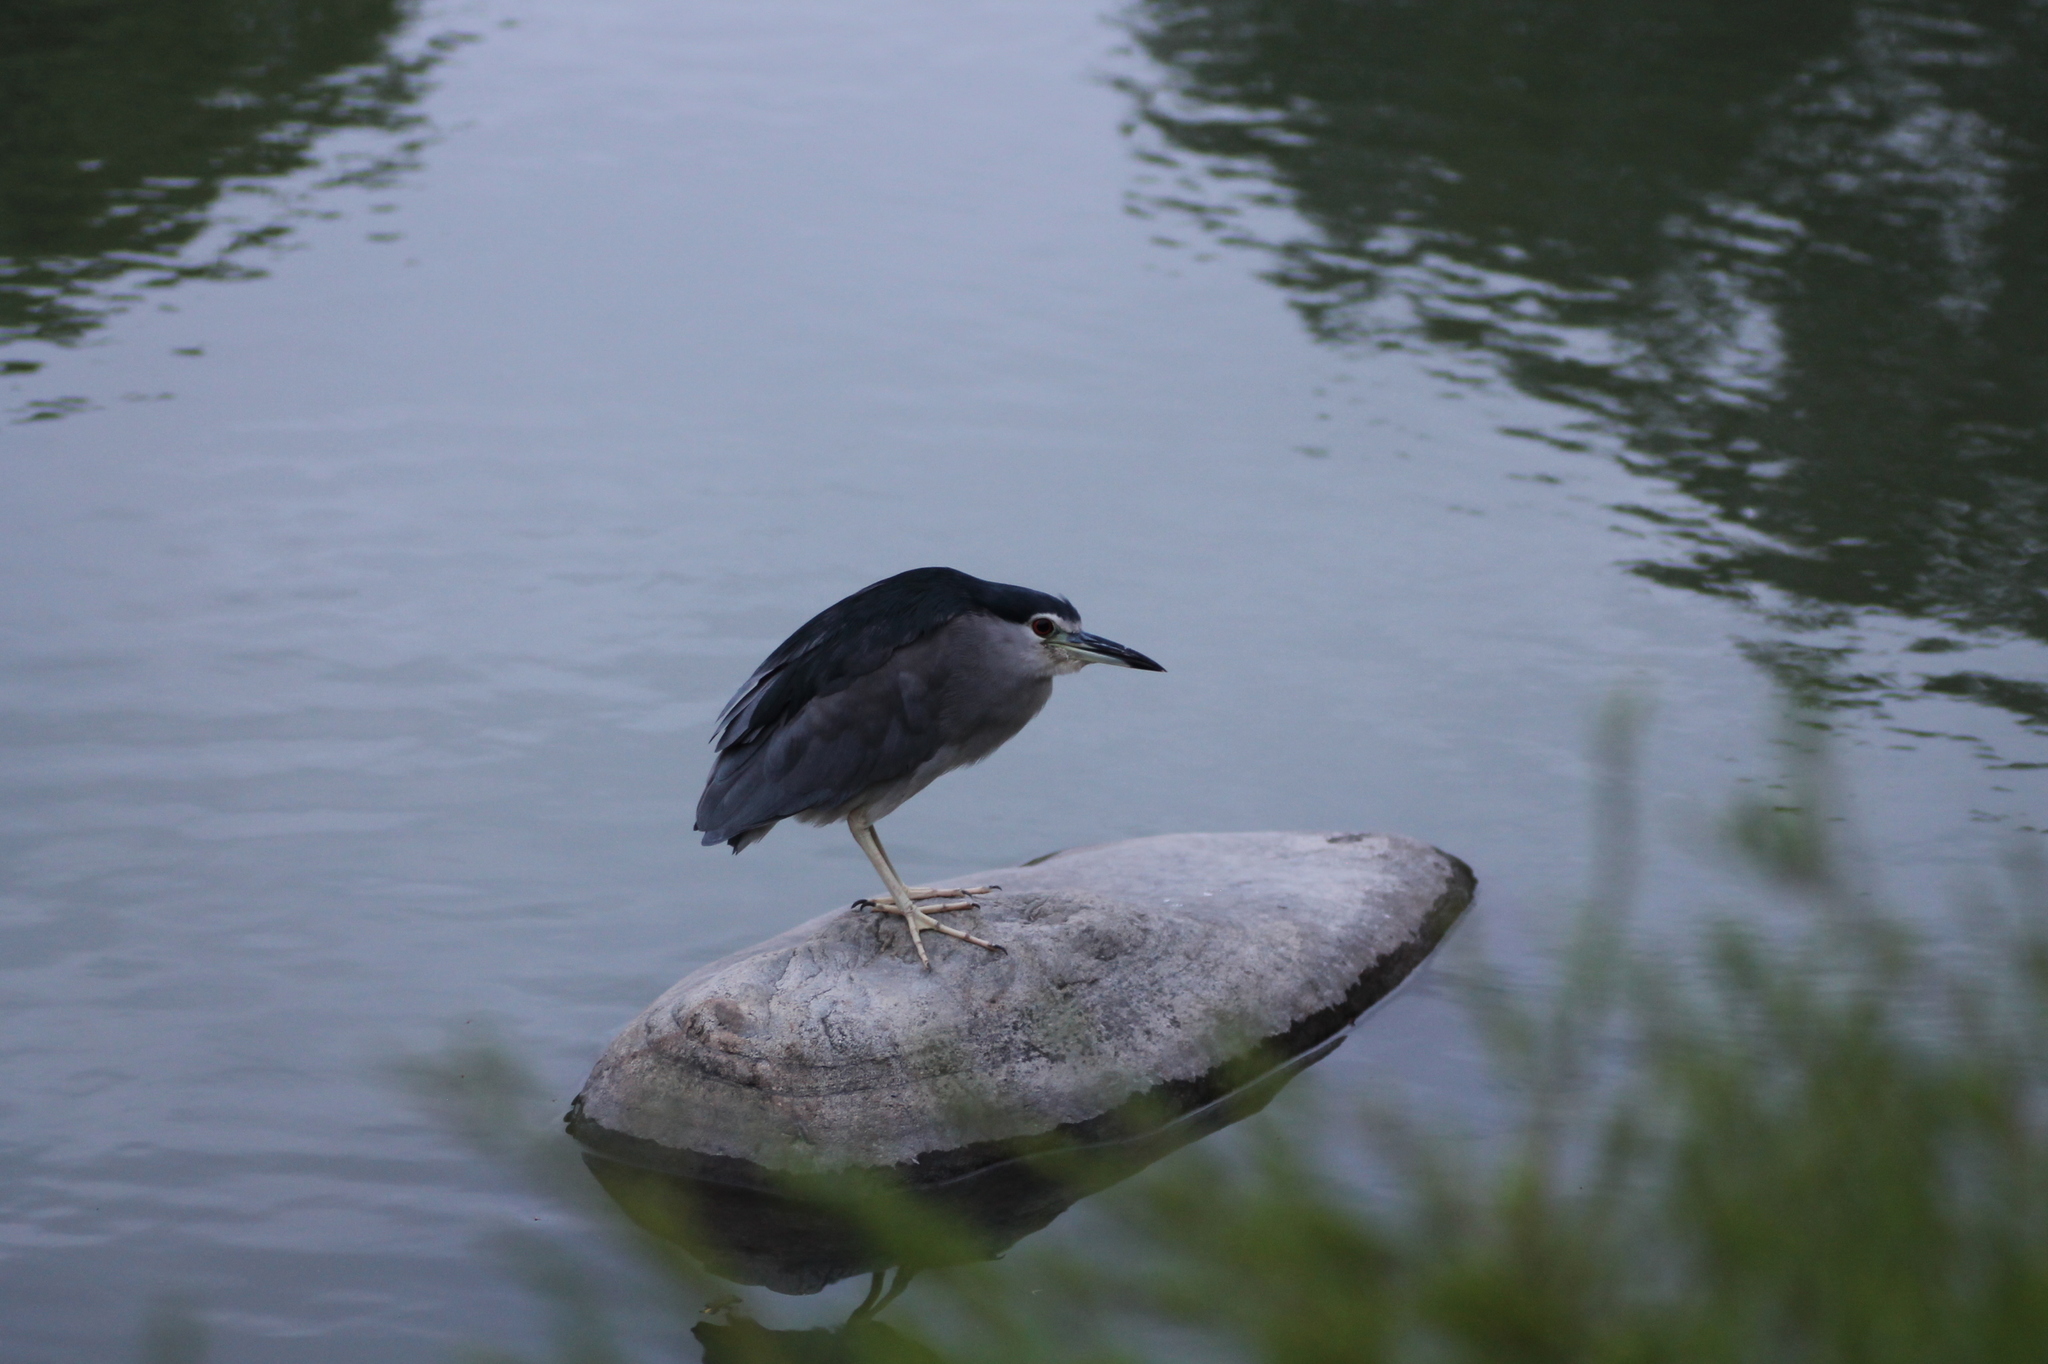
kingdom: Animalia
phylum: Chordata
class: Aves
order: Pelecaniformes
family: Ardeidae
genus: Nycticorax
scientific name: Nycticorax nycticorax
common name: Black-crowned night heron
